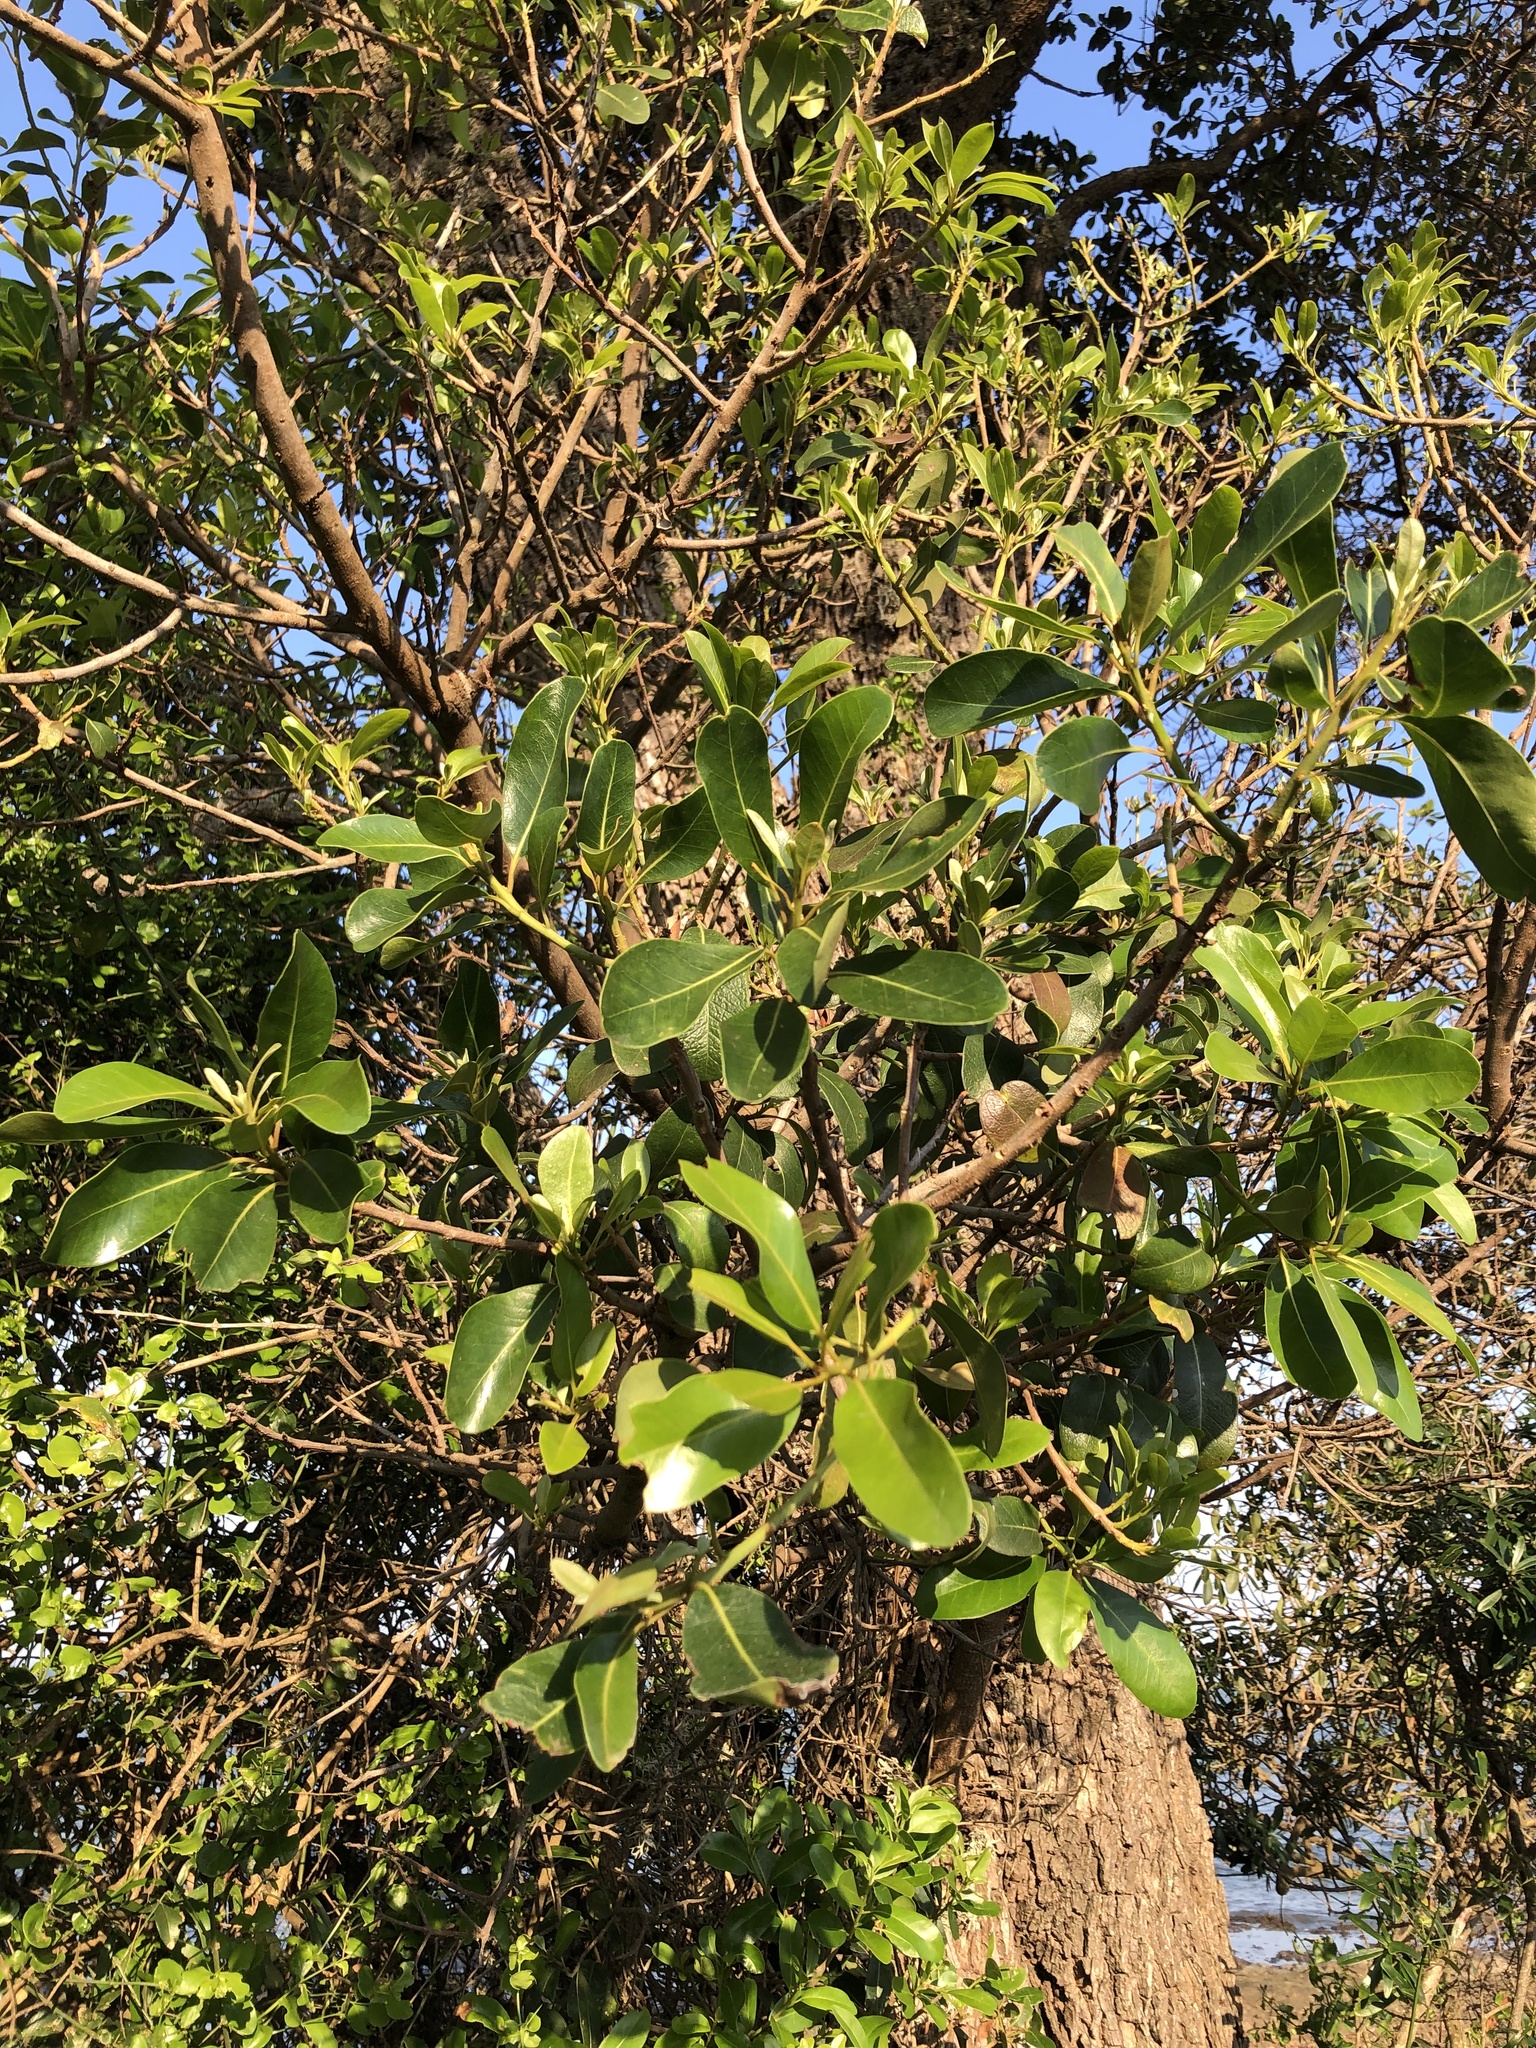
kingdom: Plantae
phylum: Tracheophyta
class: Magnoliopsida
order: Ericales
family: Sapotaceae
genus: Sideroxylon
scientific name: Sideroxylon inerme
